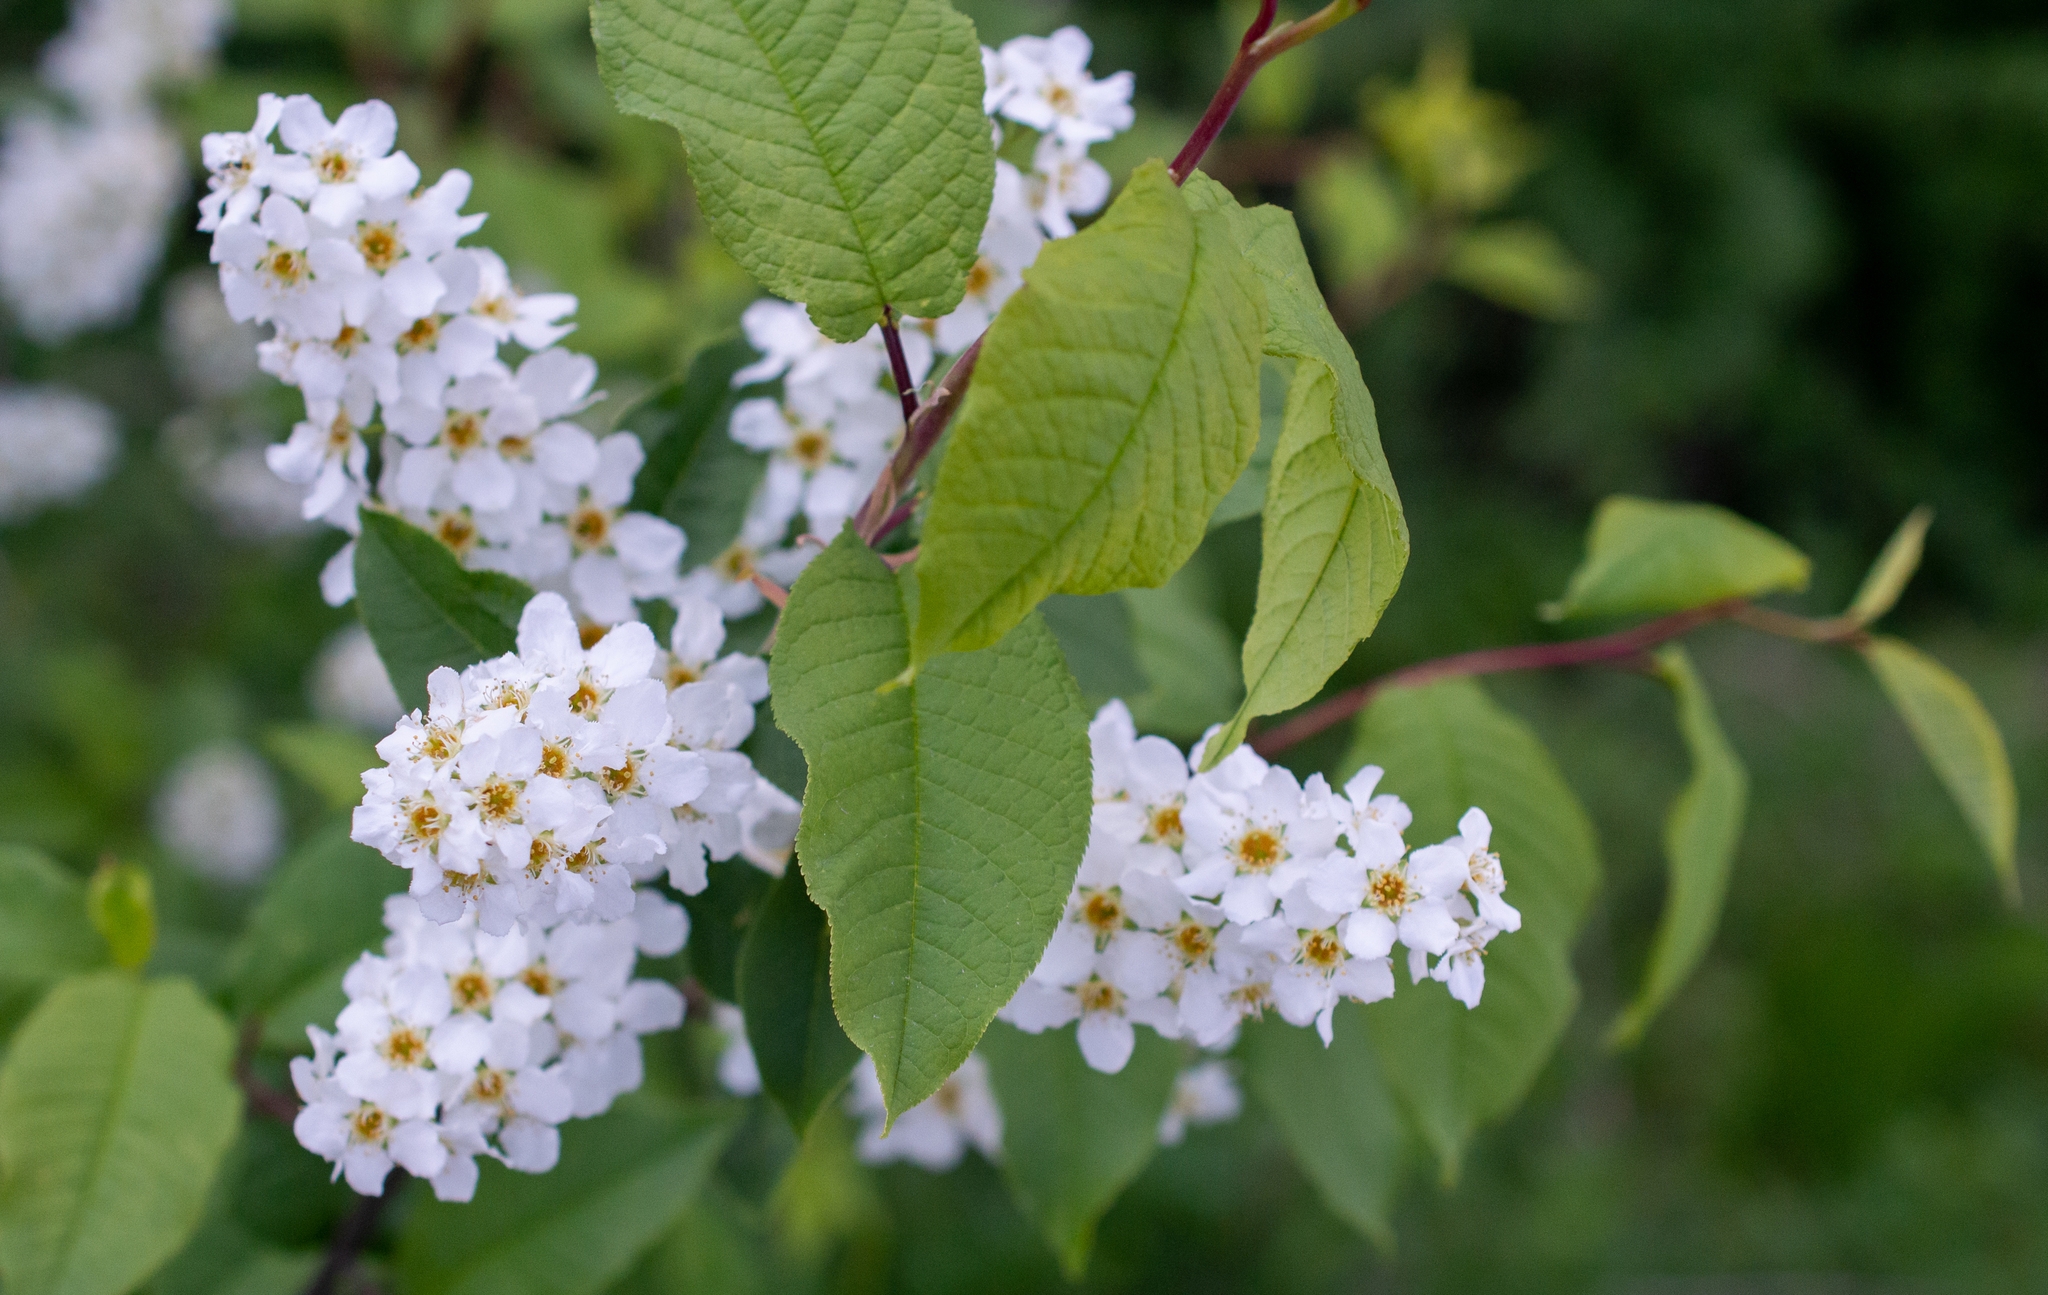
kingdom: Plantae
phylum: Tracheophyta
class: Magnoliopsida
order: Rosales
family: Rosaceae
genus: Prunus
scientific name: Prunus padus
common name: Bird cherry
